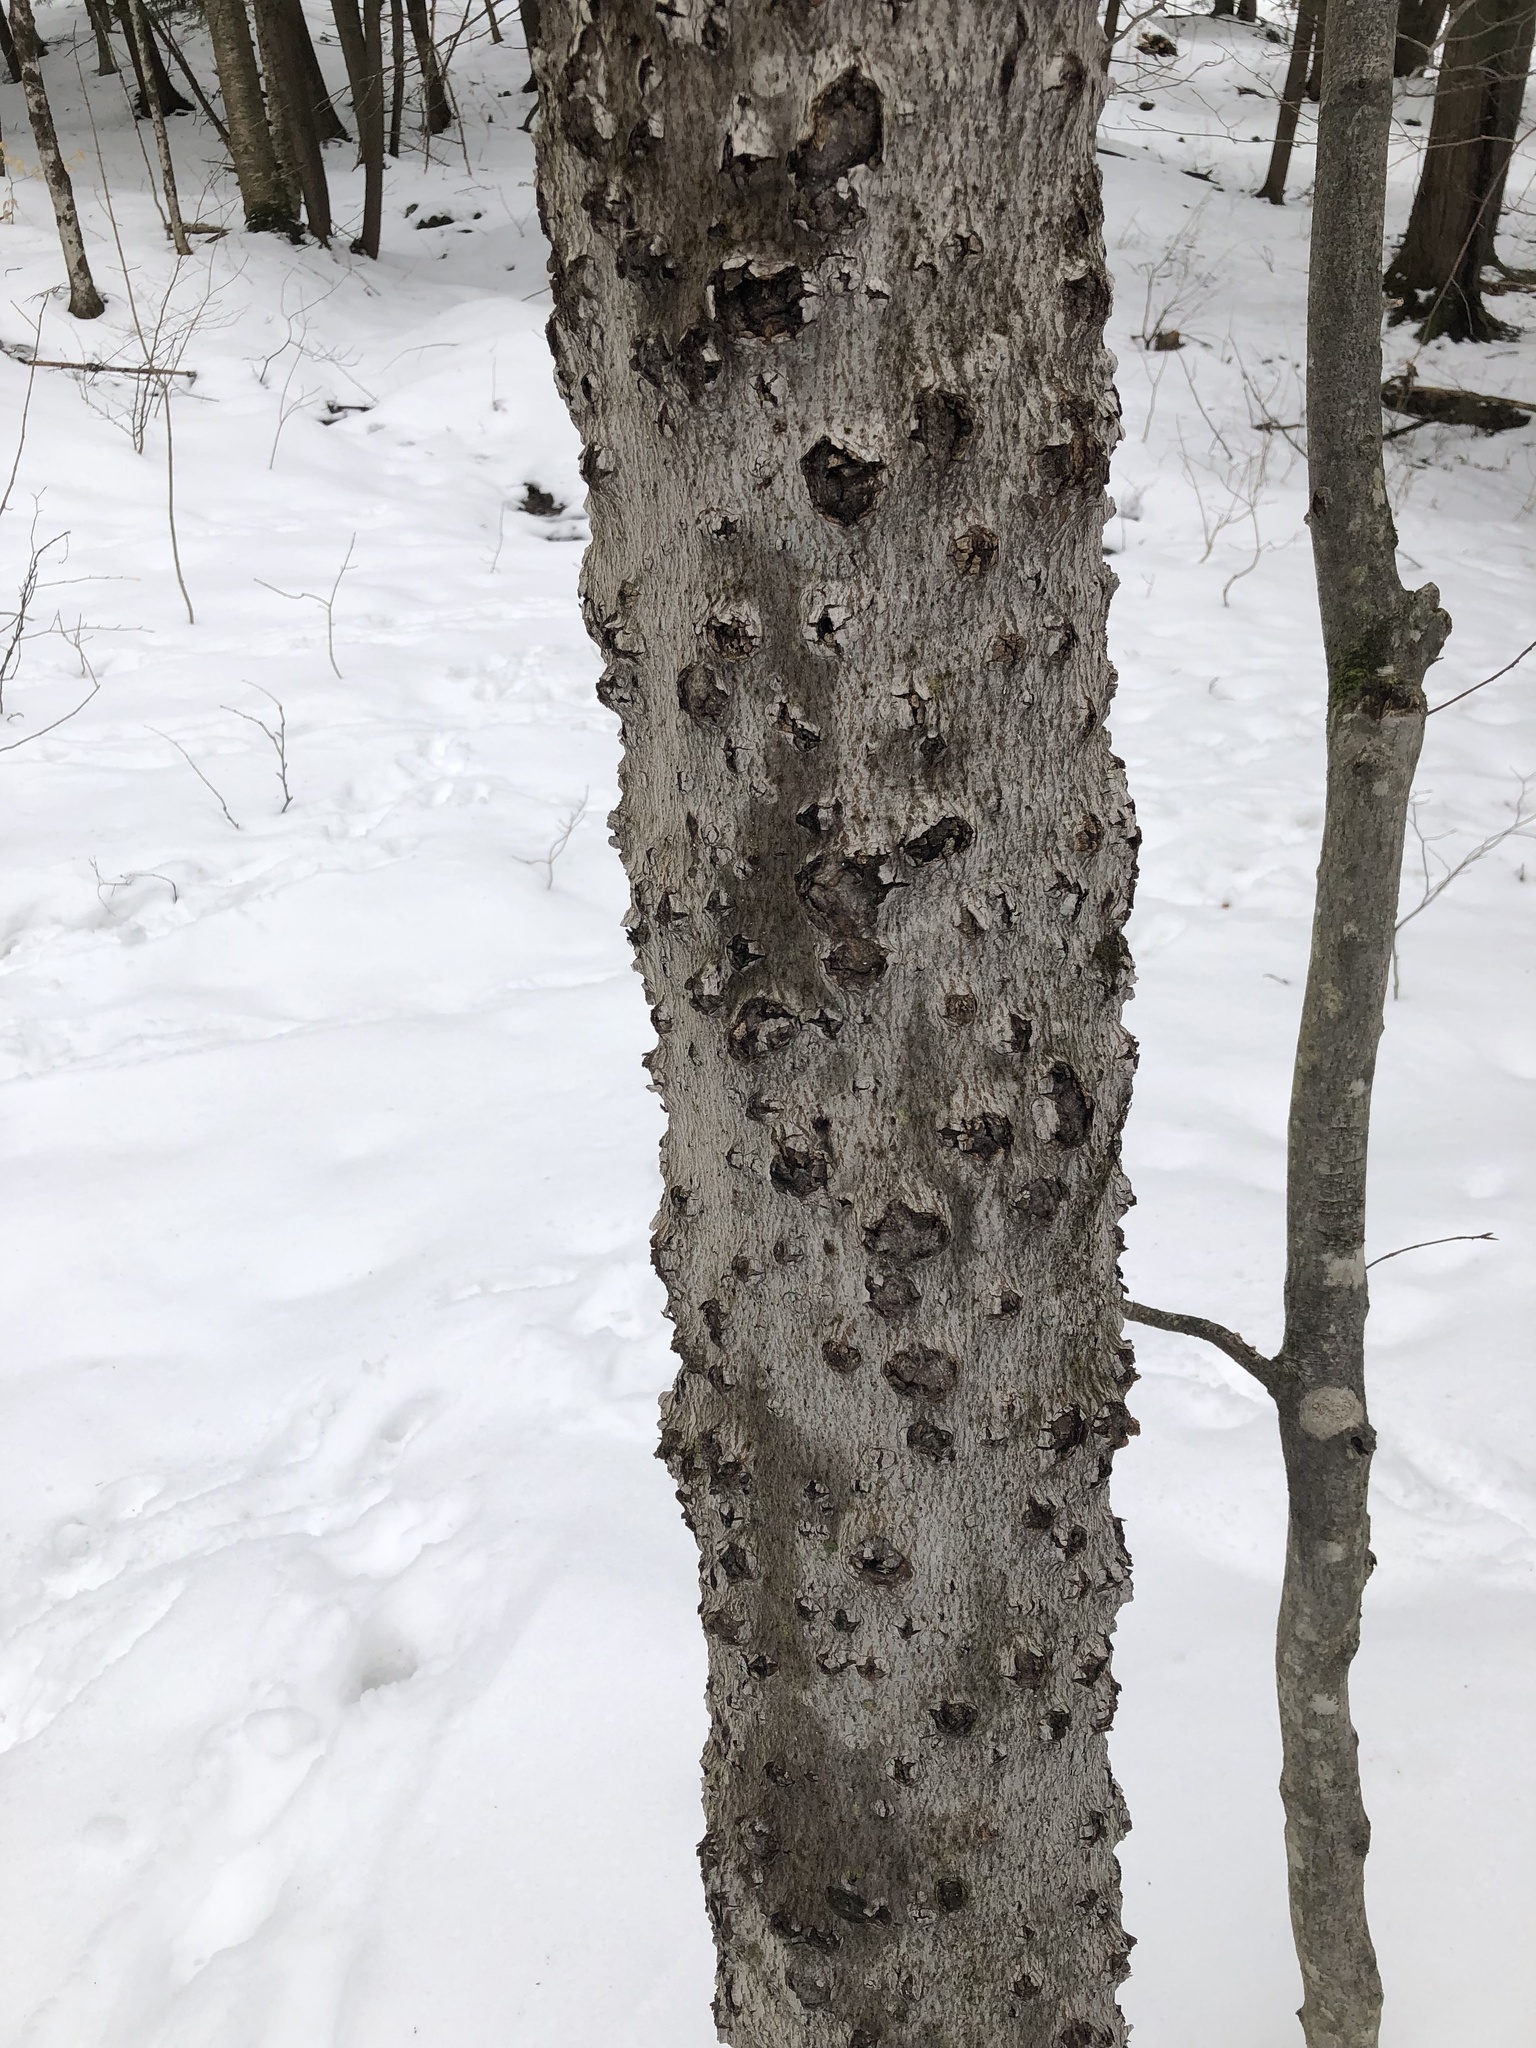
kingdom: Fungi
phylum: Ascomycota
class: Sordariomycetes
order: Hypocreales
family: Nectriaceae
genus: Neonectria
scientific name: Neonectria faginata
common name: Beech bark canker
